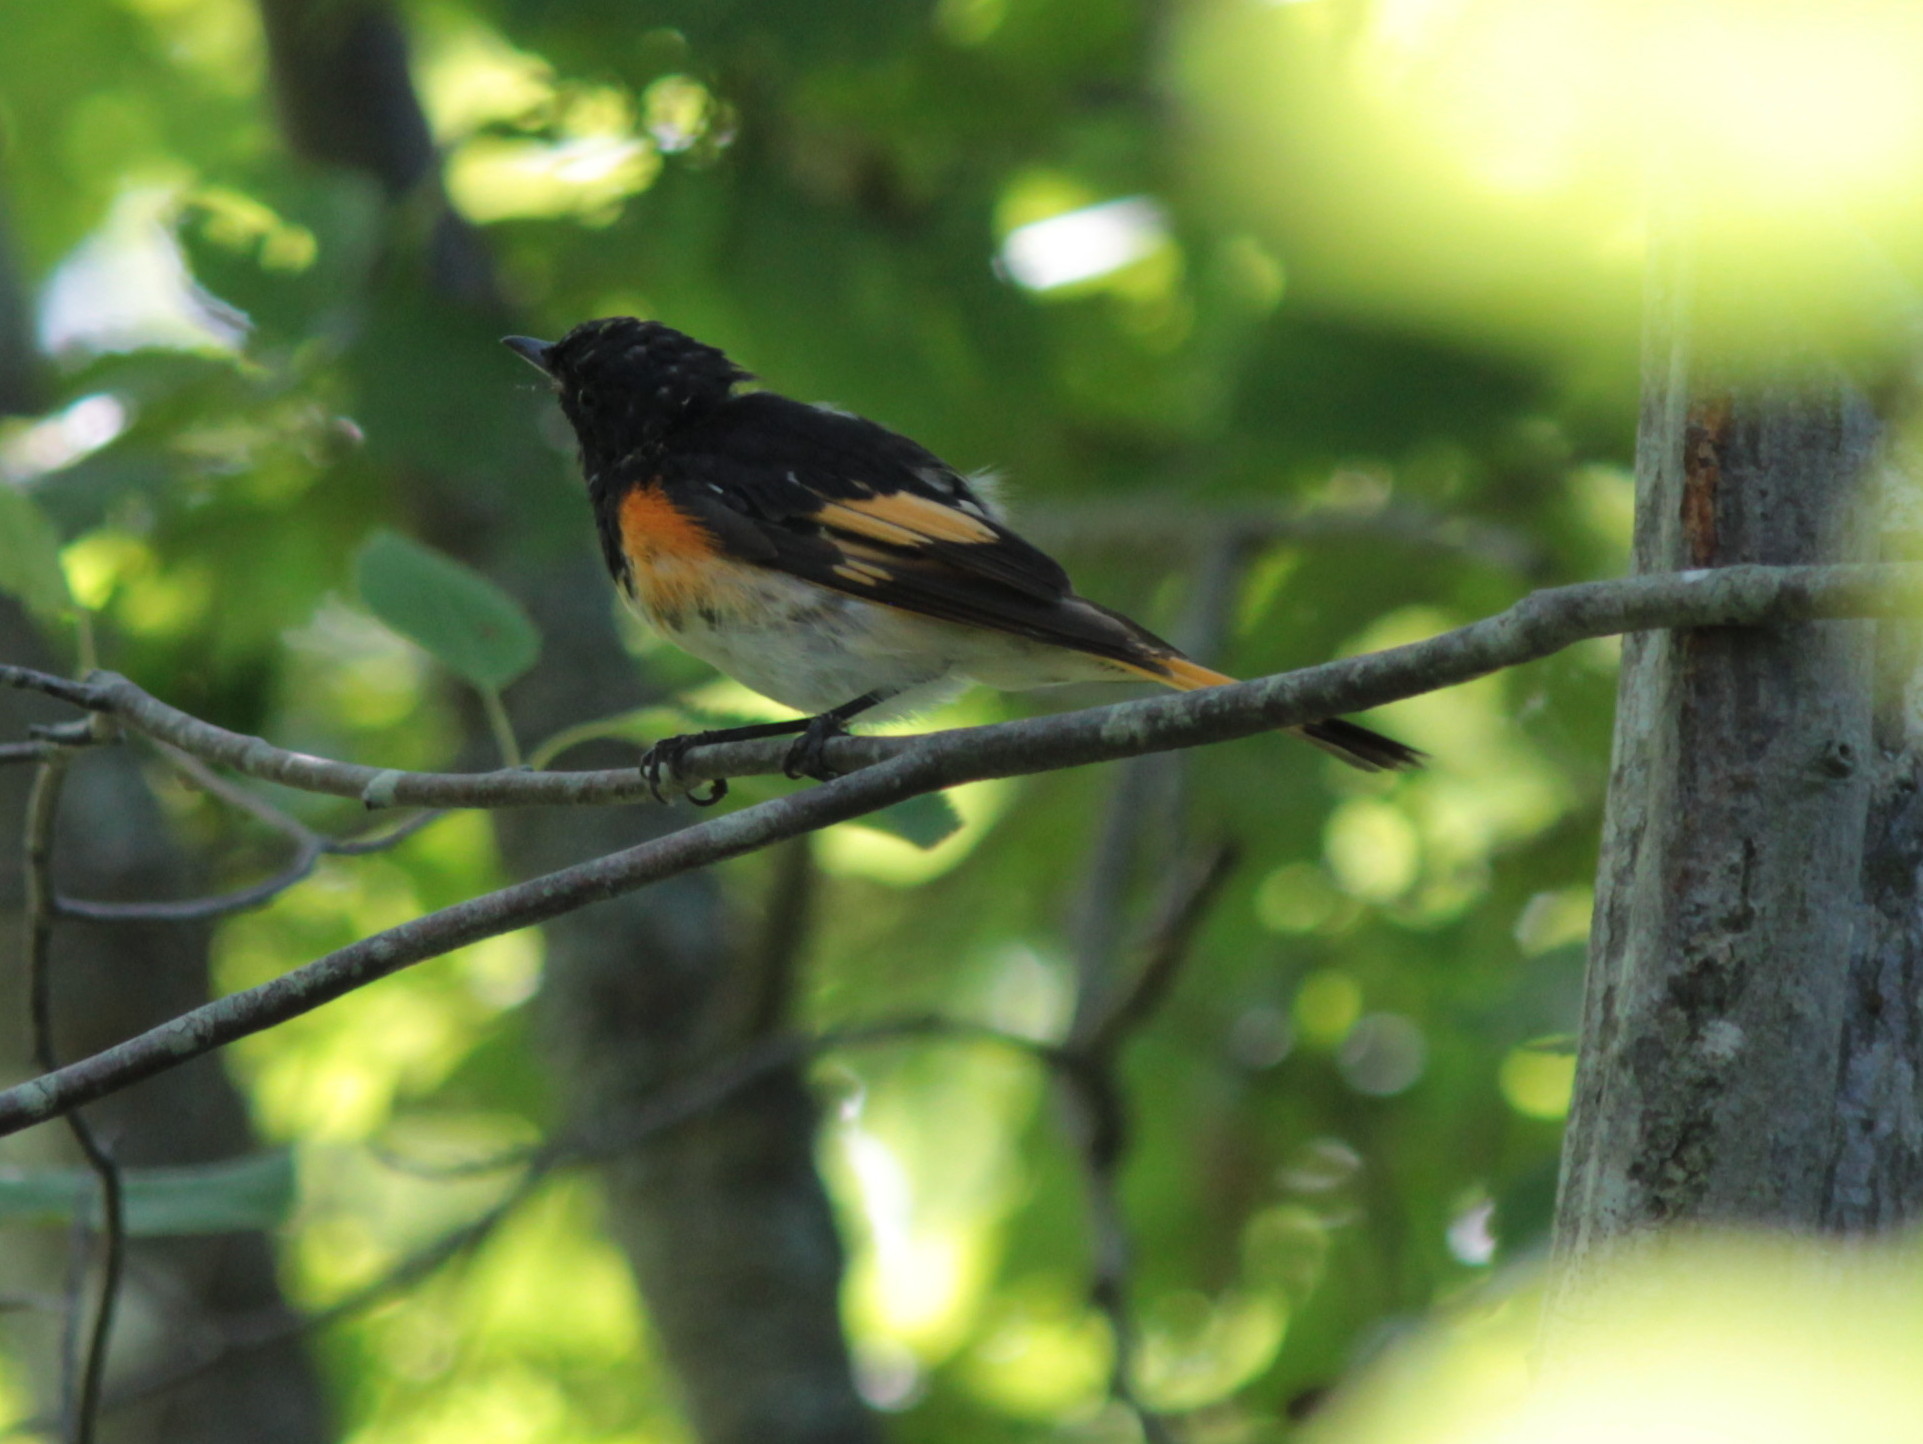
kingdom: Animalia
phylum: Chordata
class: Aves
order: Passeriformes
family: Parulidae
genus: Setophaga
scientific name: Setophaga ruticilla
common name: American redstart
